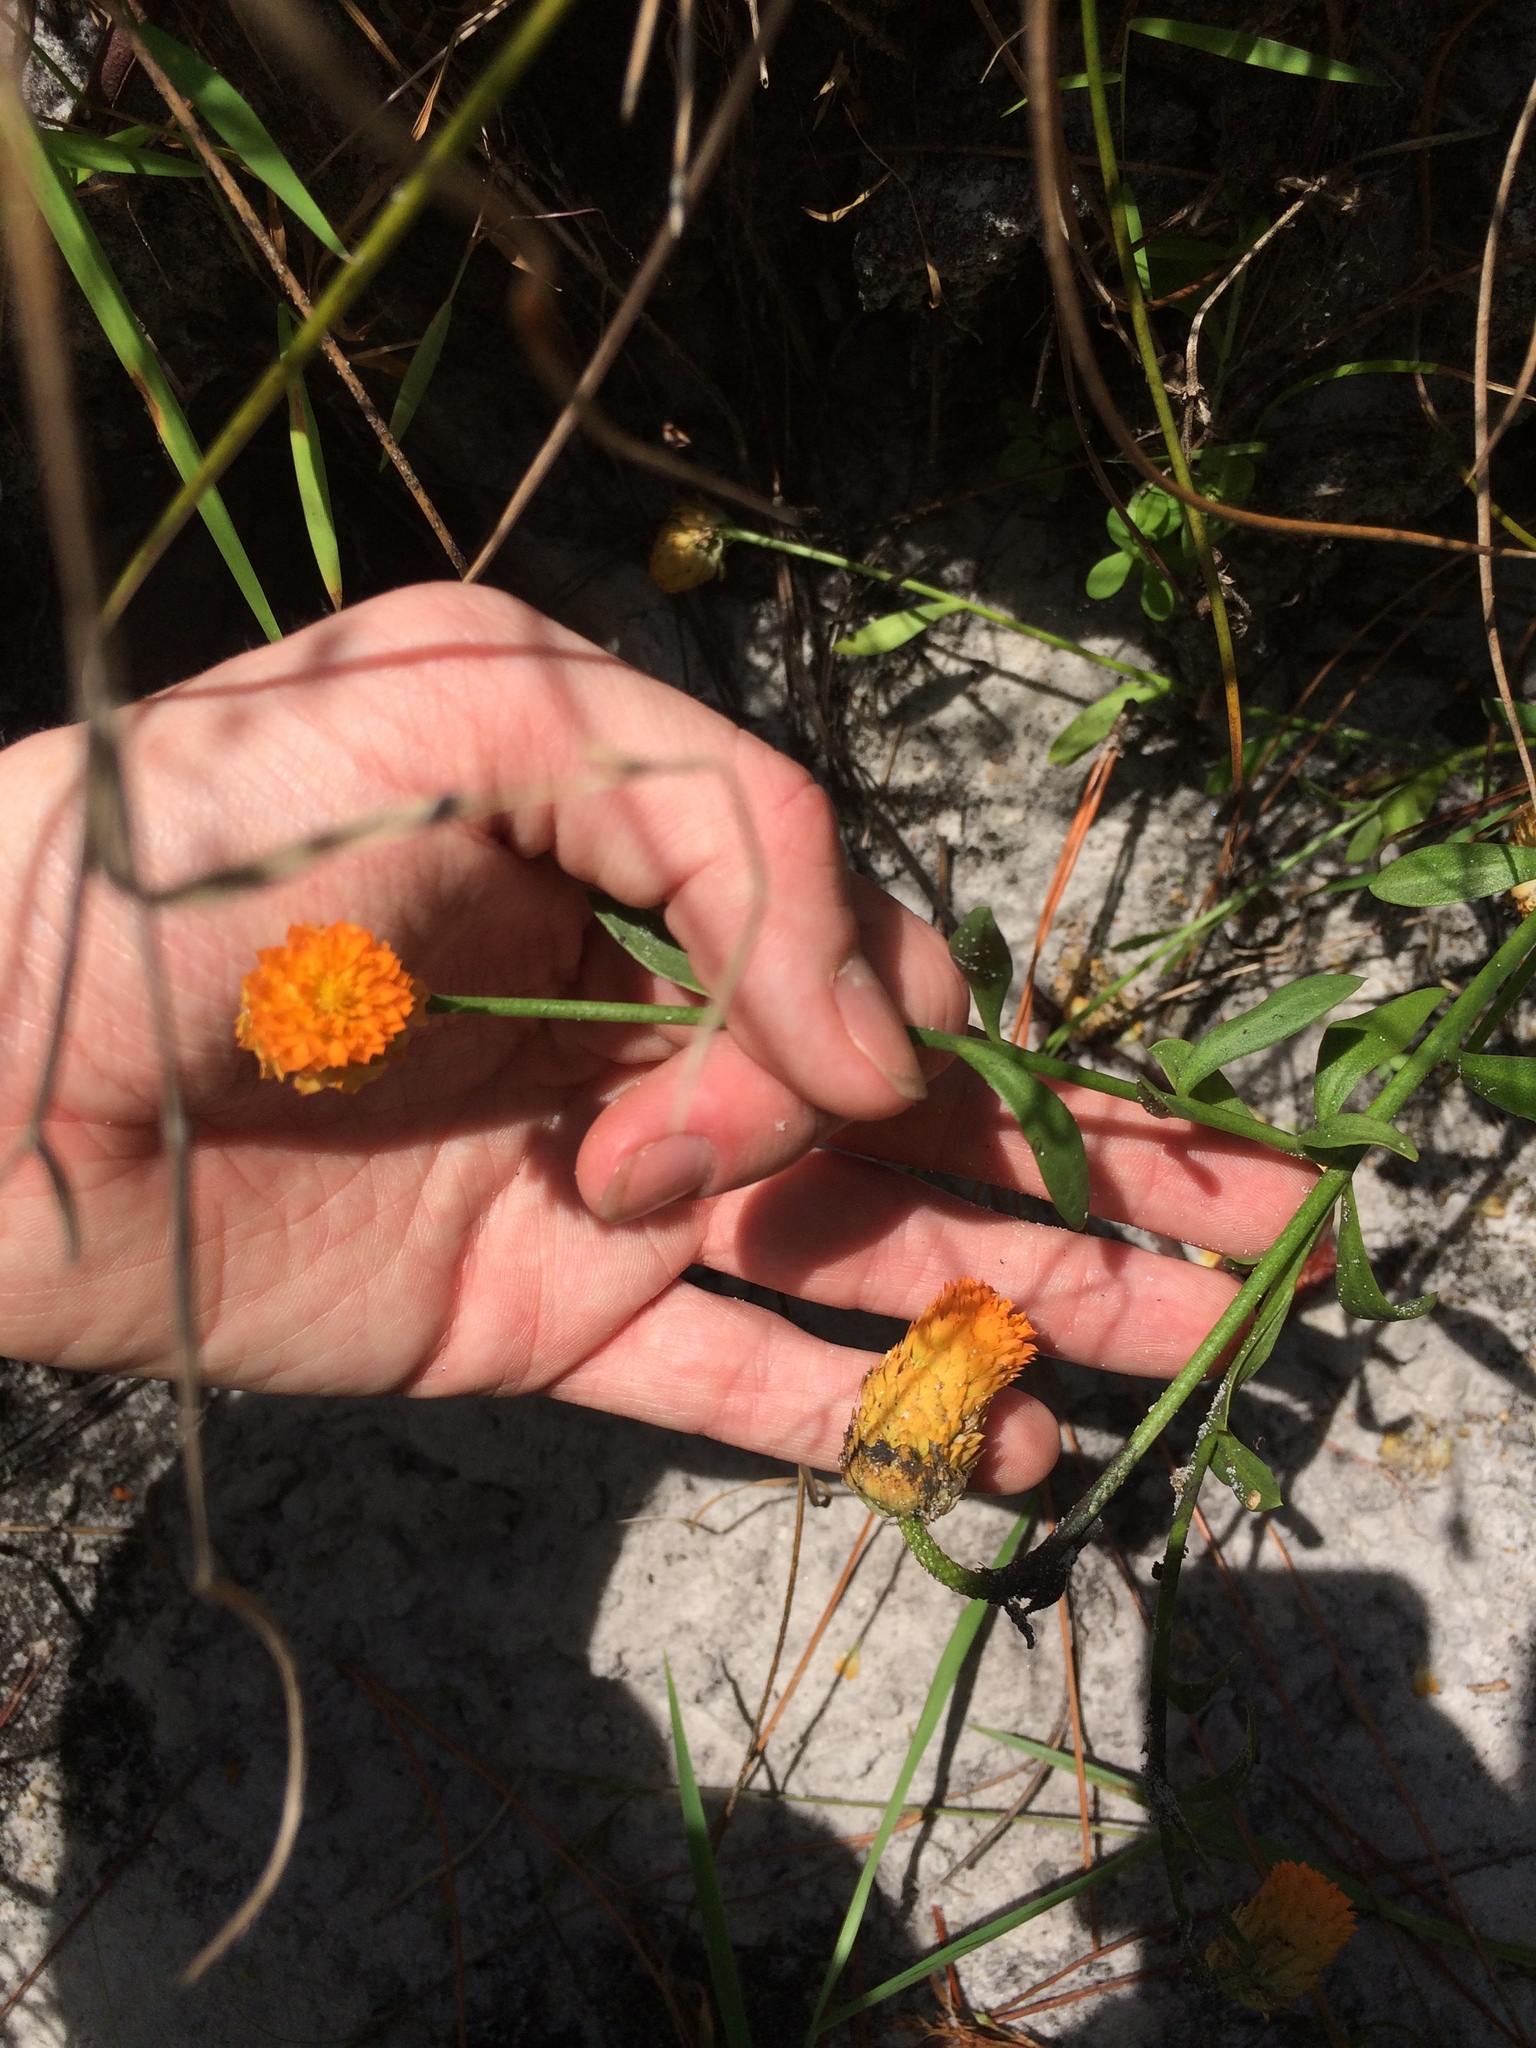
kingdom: Plantae
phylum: Tracheophyta
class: Magnoliopsida
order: Fabales
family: Polygalaceae
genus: Polygala
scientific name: Polygala lutea
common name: Orange milkwort
